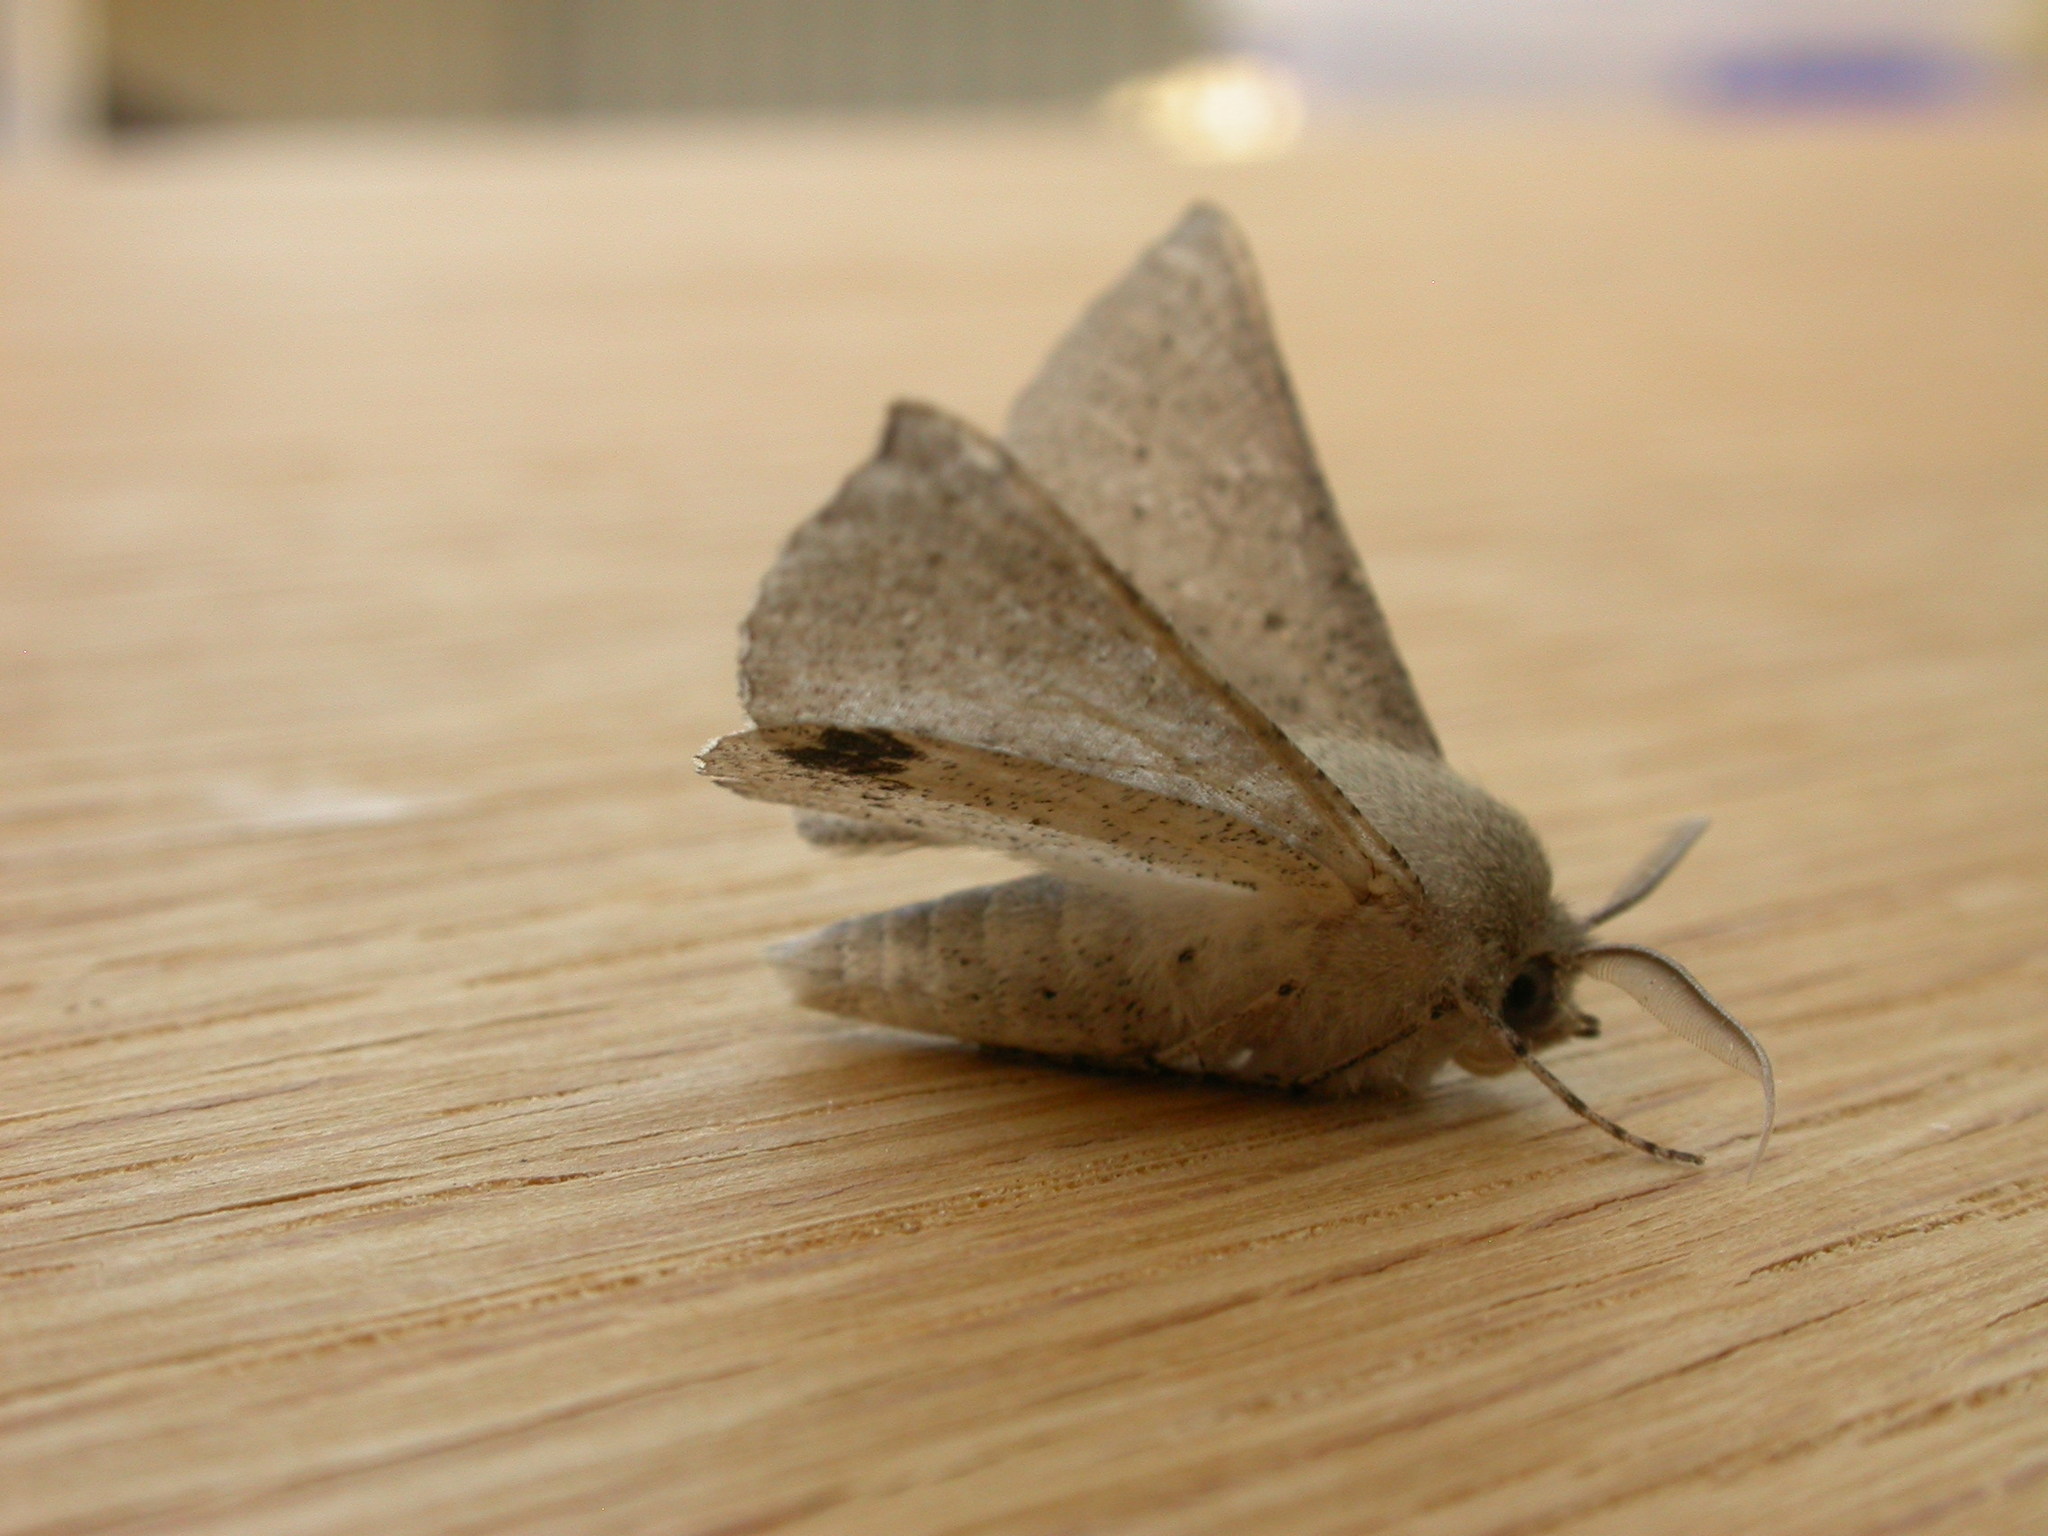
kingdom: Animalia
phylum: Arthropoda
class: Insecta
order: Lepidoptera
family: Geometridae
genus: Oenochroma
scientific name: Oenochroma subustaria
